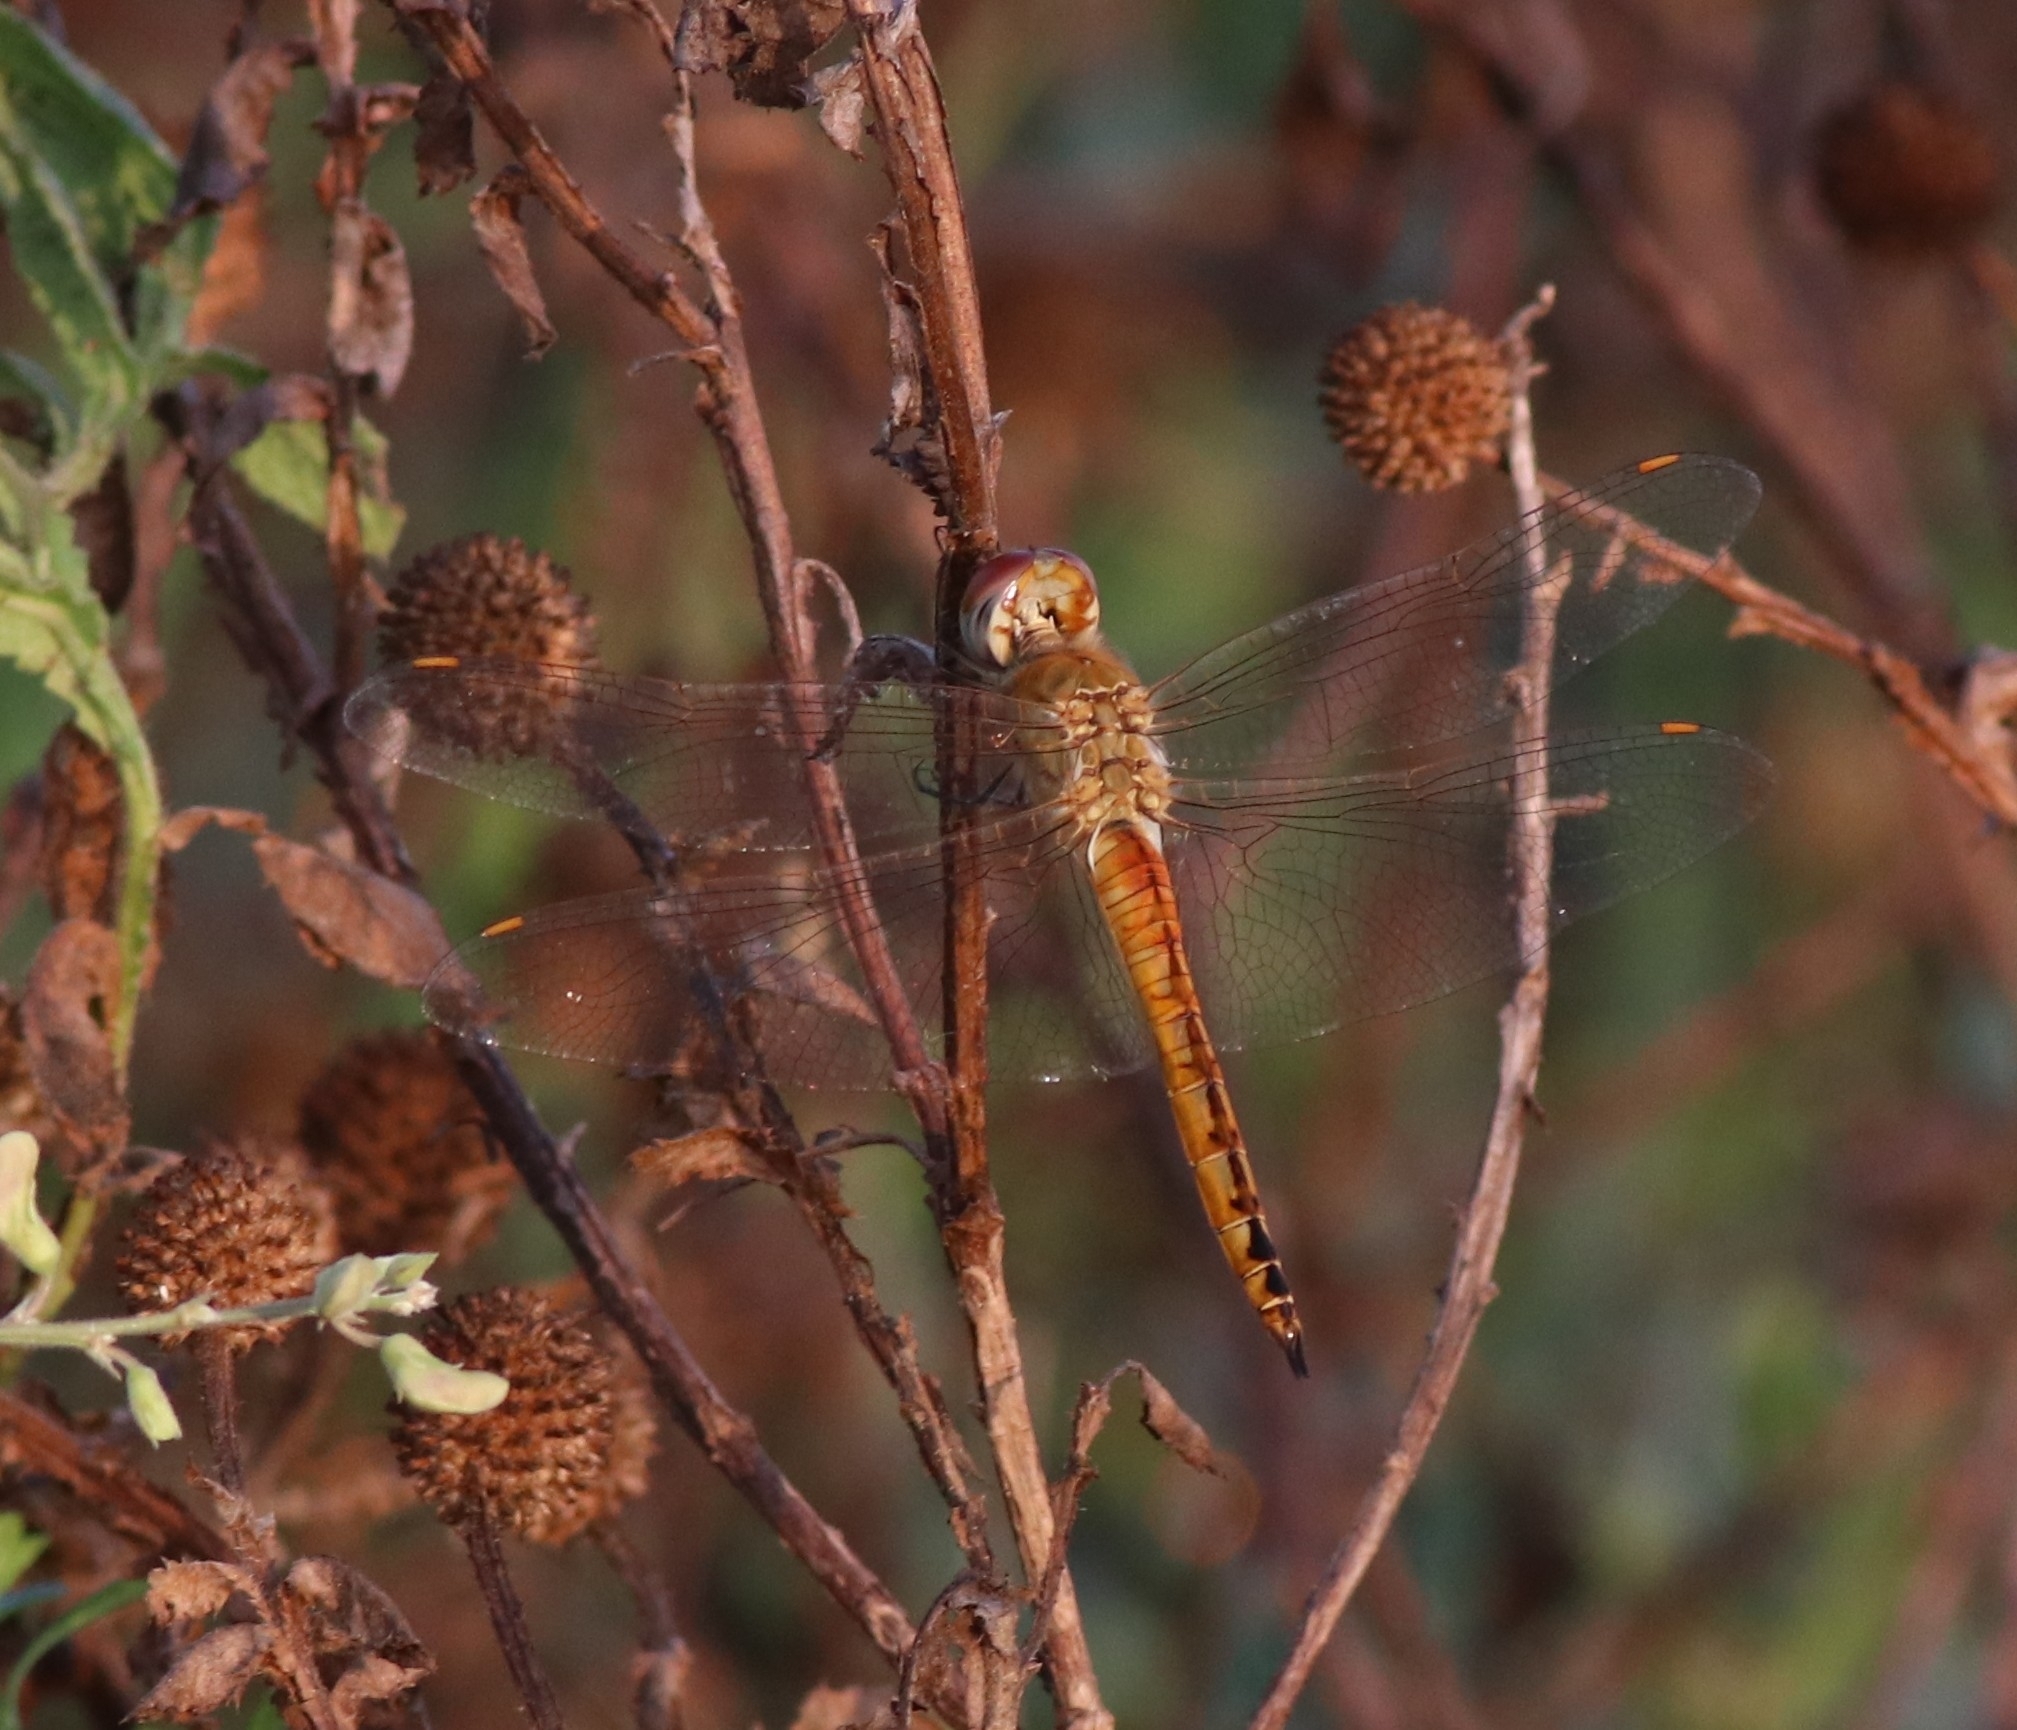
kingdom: Animalia
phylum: Arthropoda
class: Insecta
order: Odonata
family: Libellulidae
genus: Pantala
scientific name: Pantala flavescens
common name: Wandering glider
